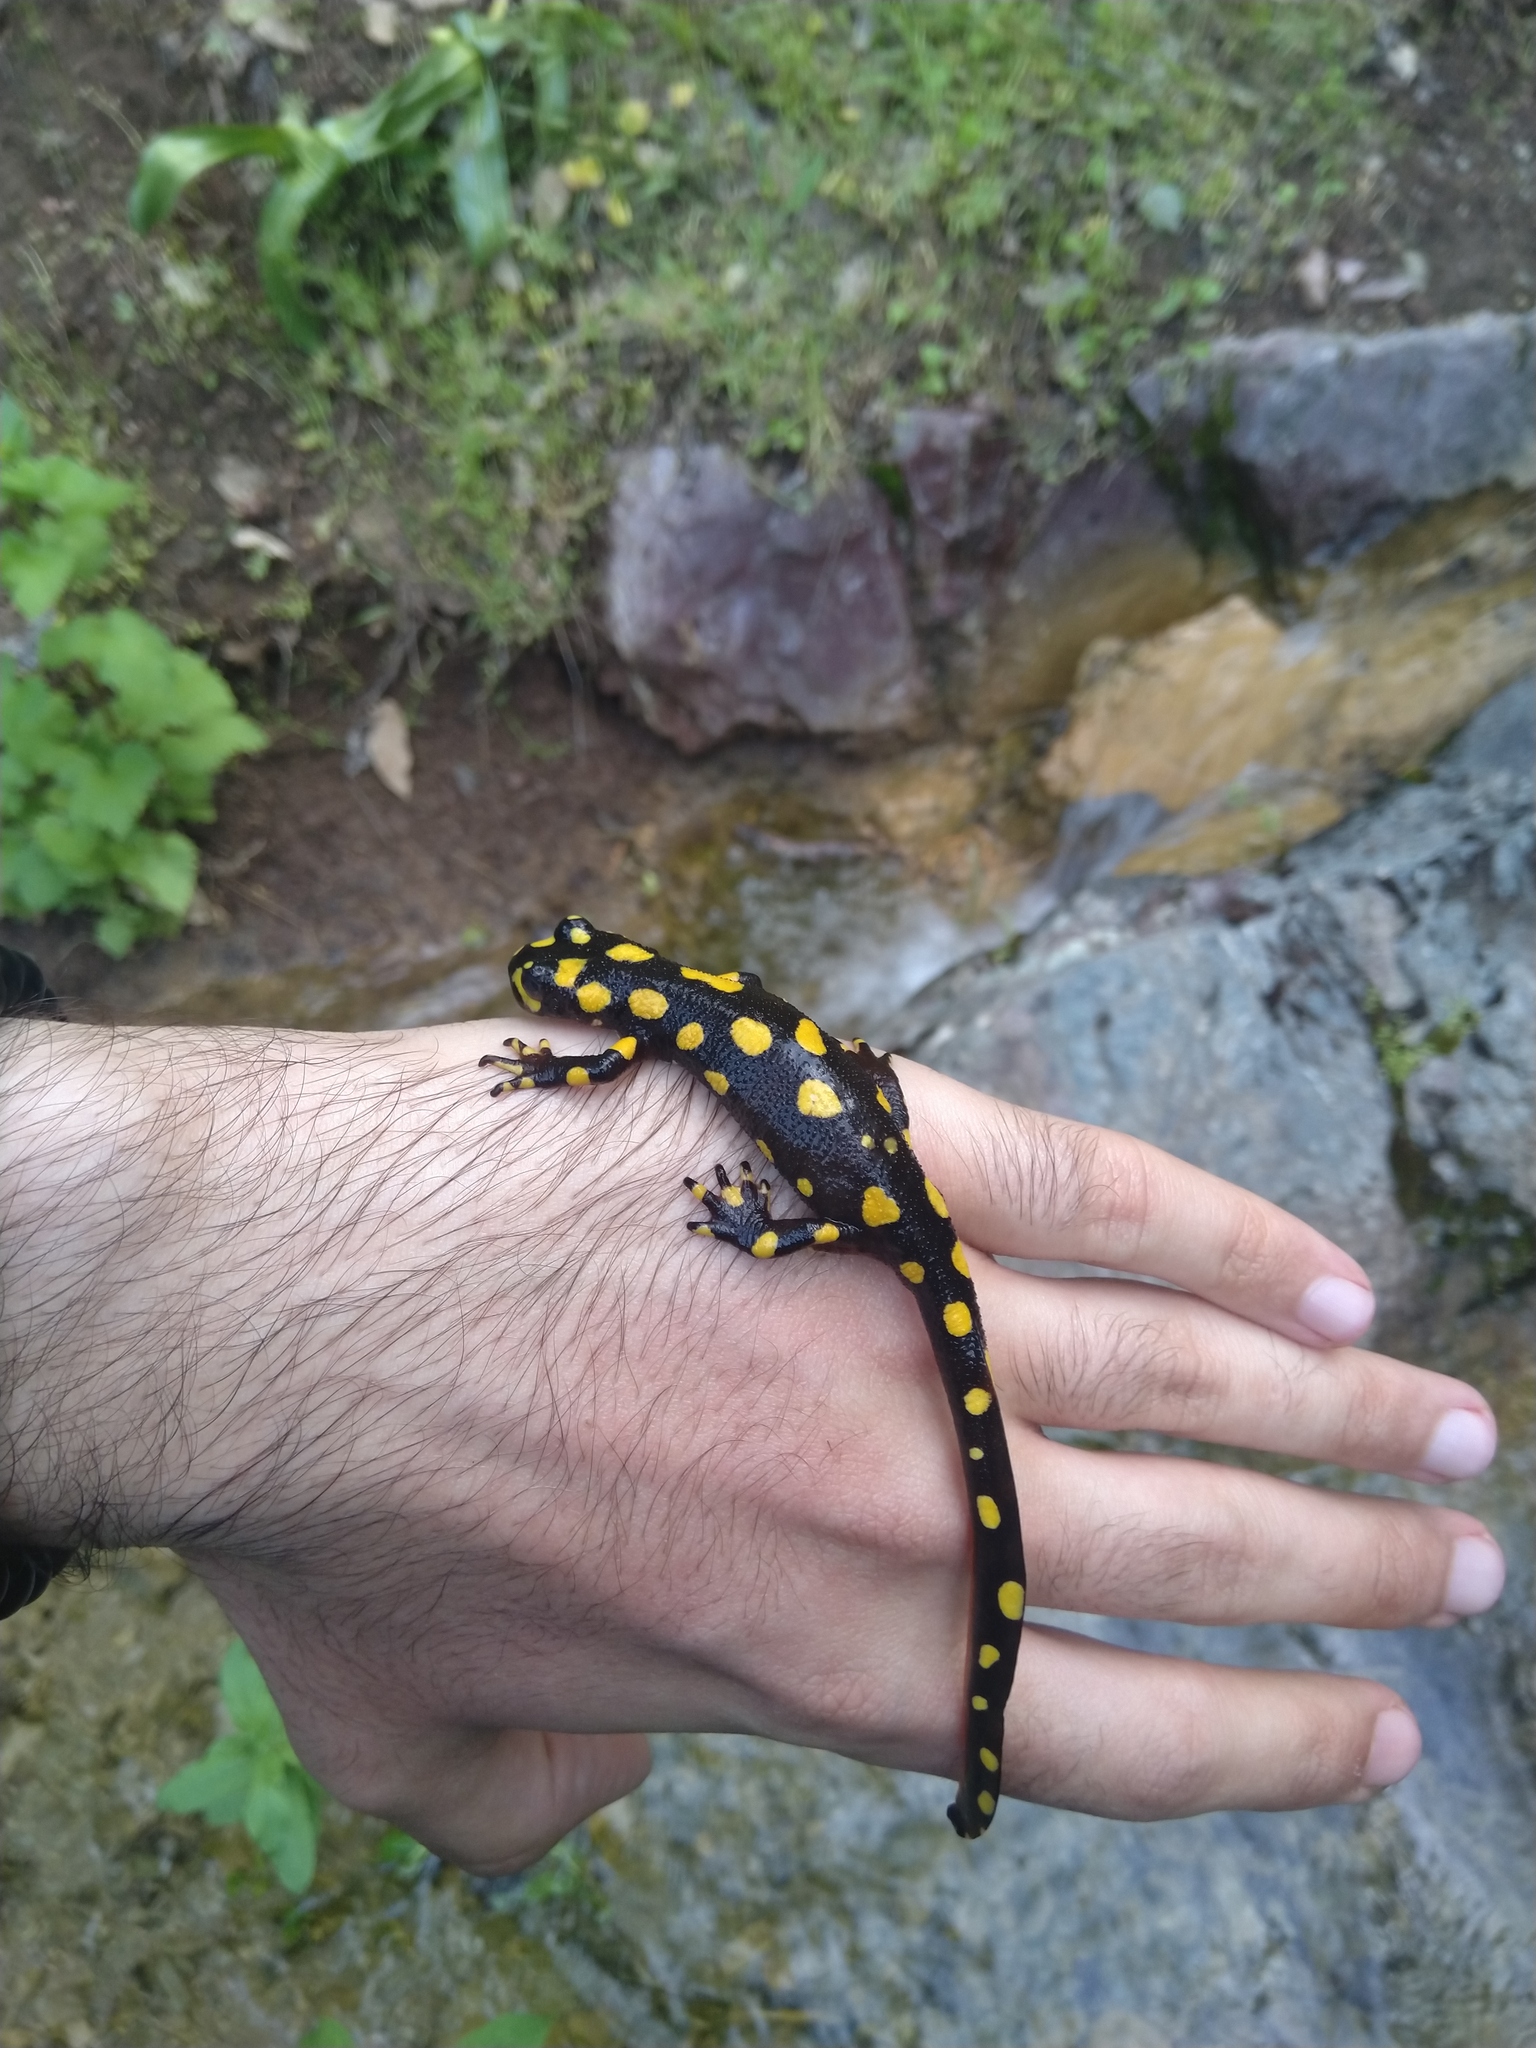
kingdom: Animalia
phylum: Chordata
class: Amphibia
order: Caudata
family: Salamandridae
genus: Neurergus
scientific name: Neurergus derjugini
